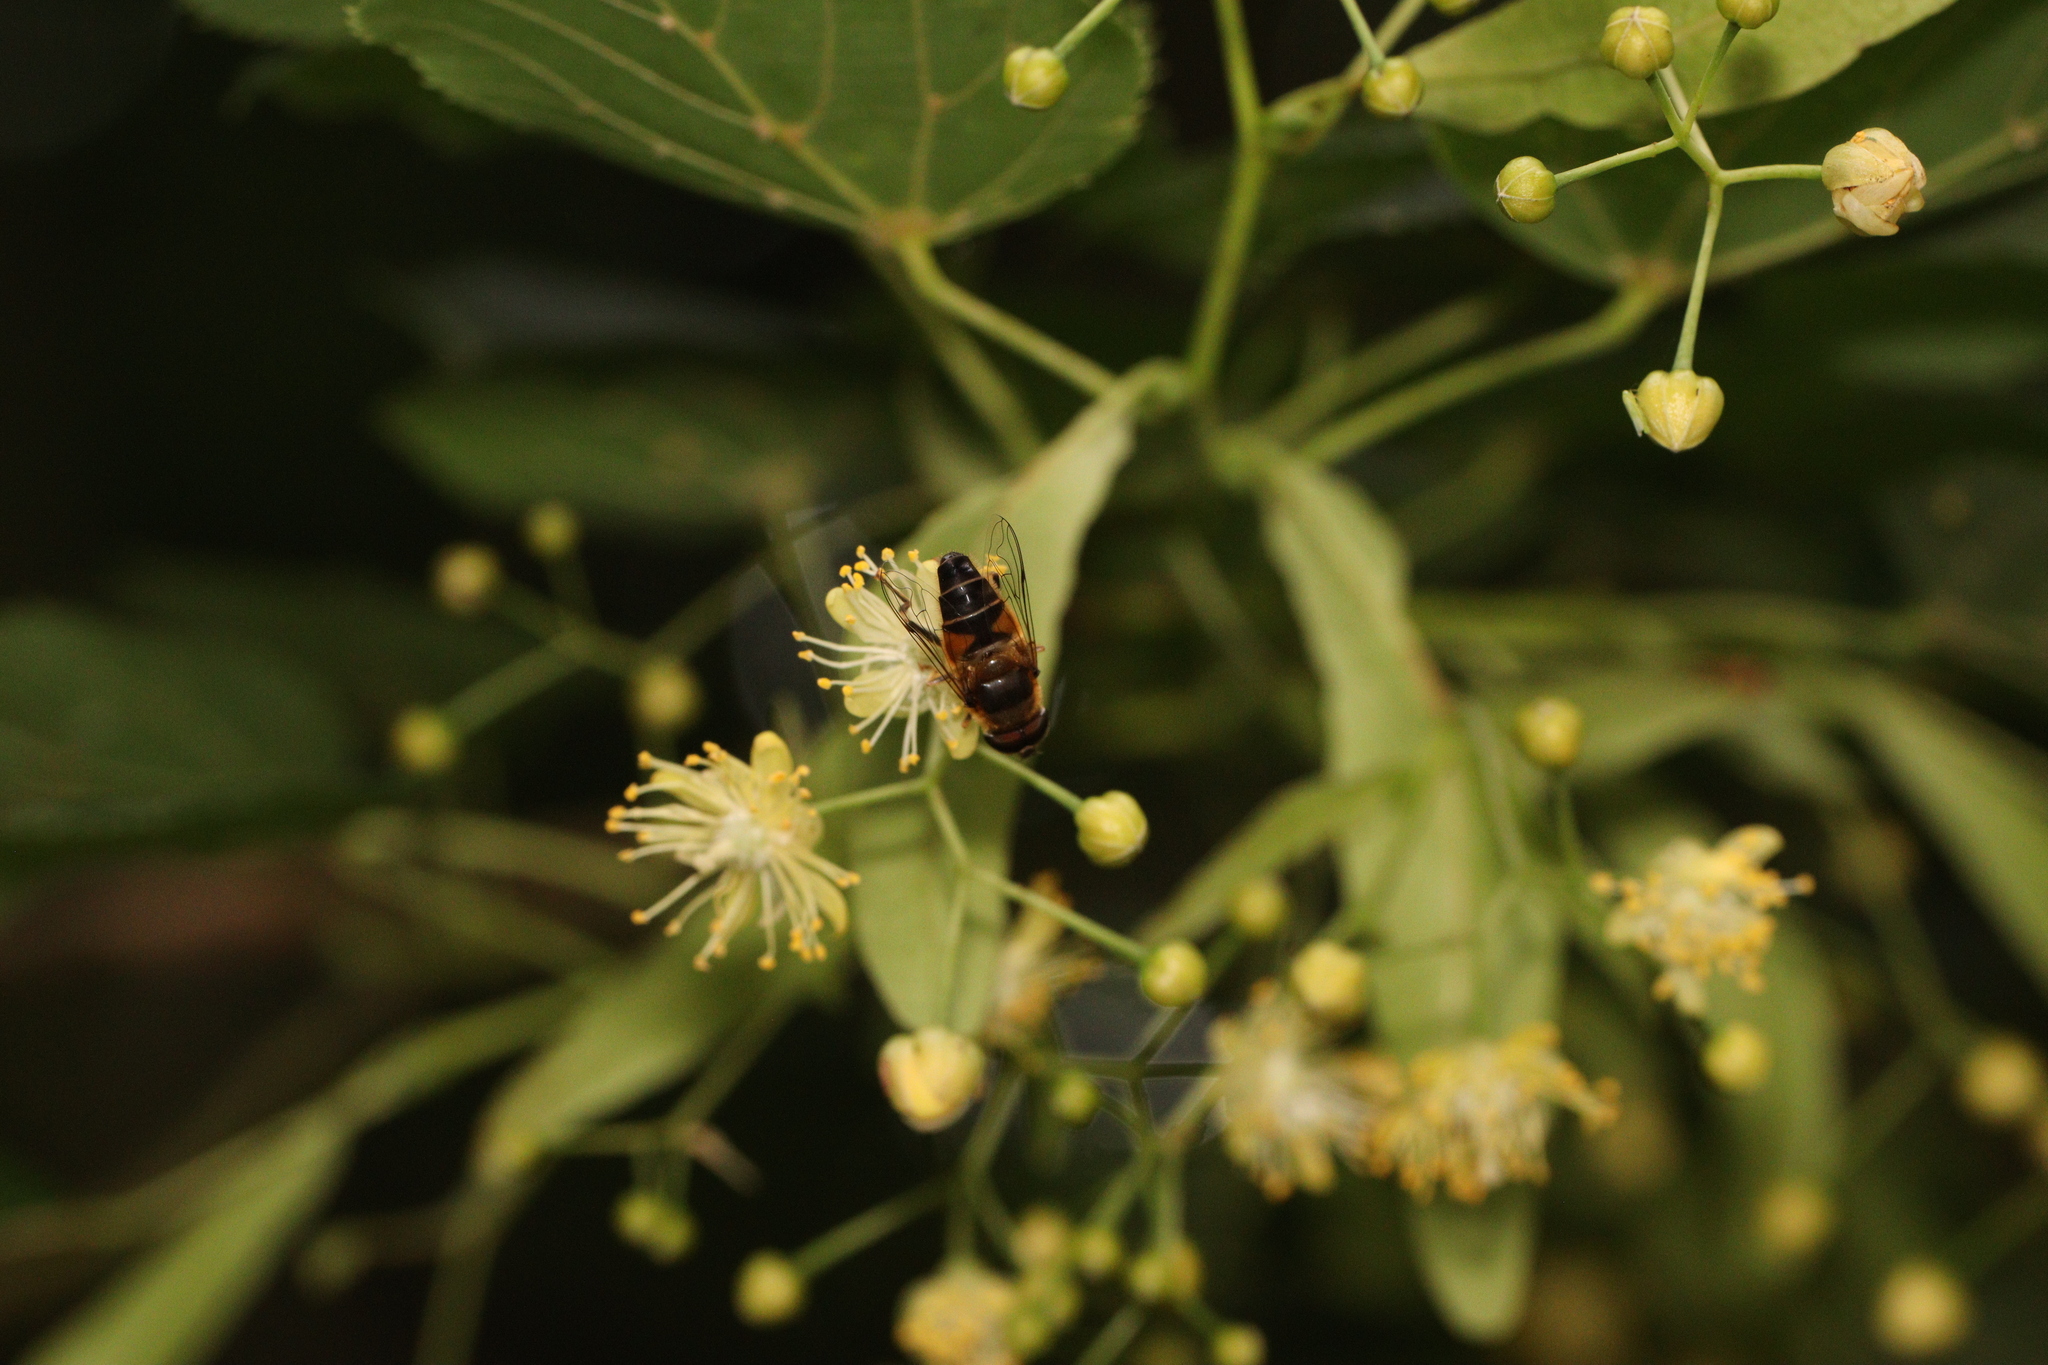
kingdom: Animalia
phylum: Arthropoda
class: Insecta
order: Diptera
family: Syrphidae
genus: Eristalis
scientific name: Eristalis pertinax
